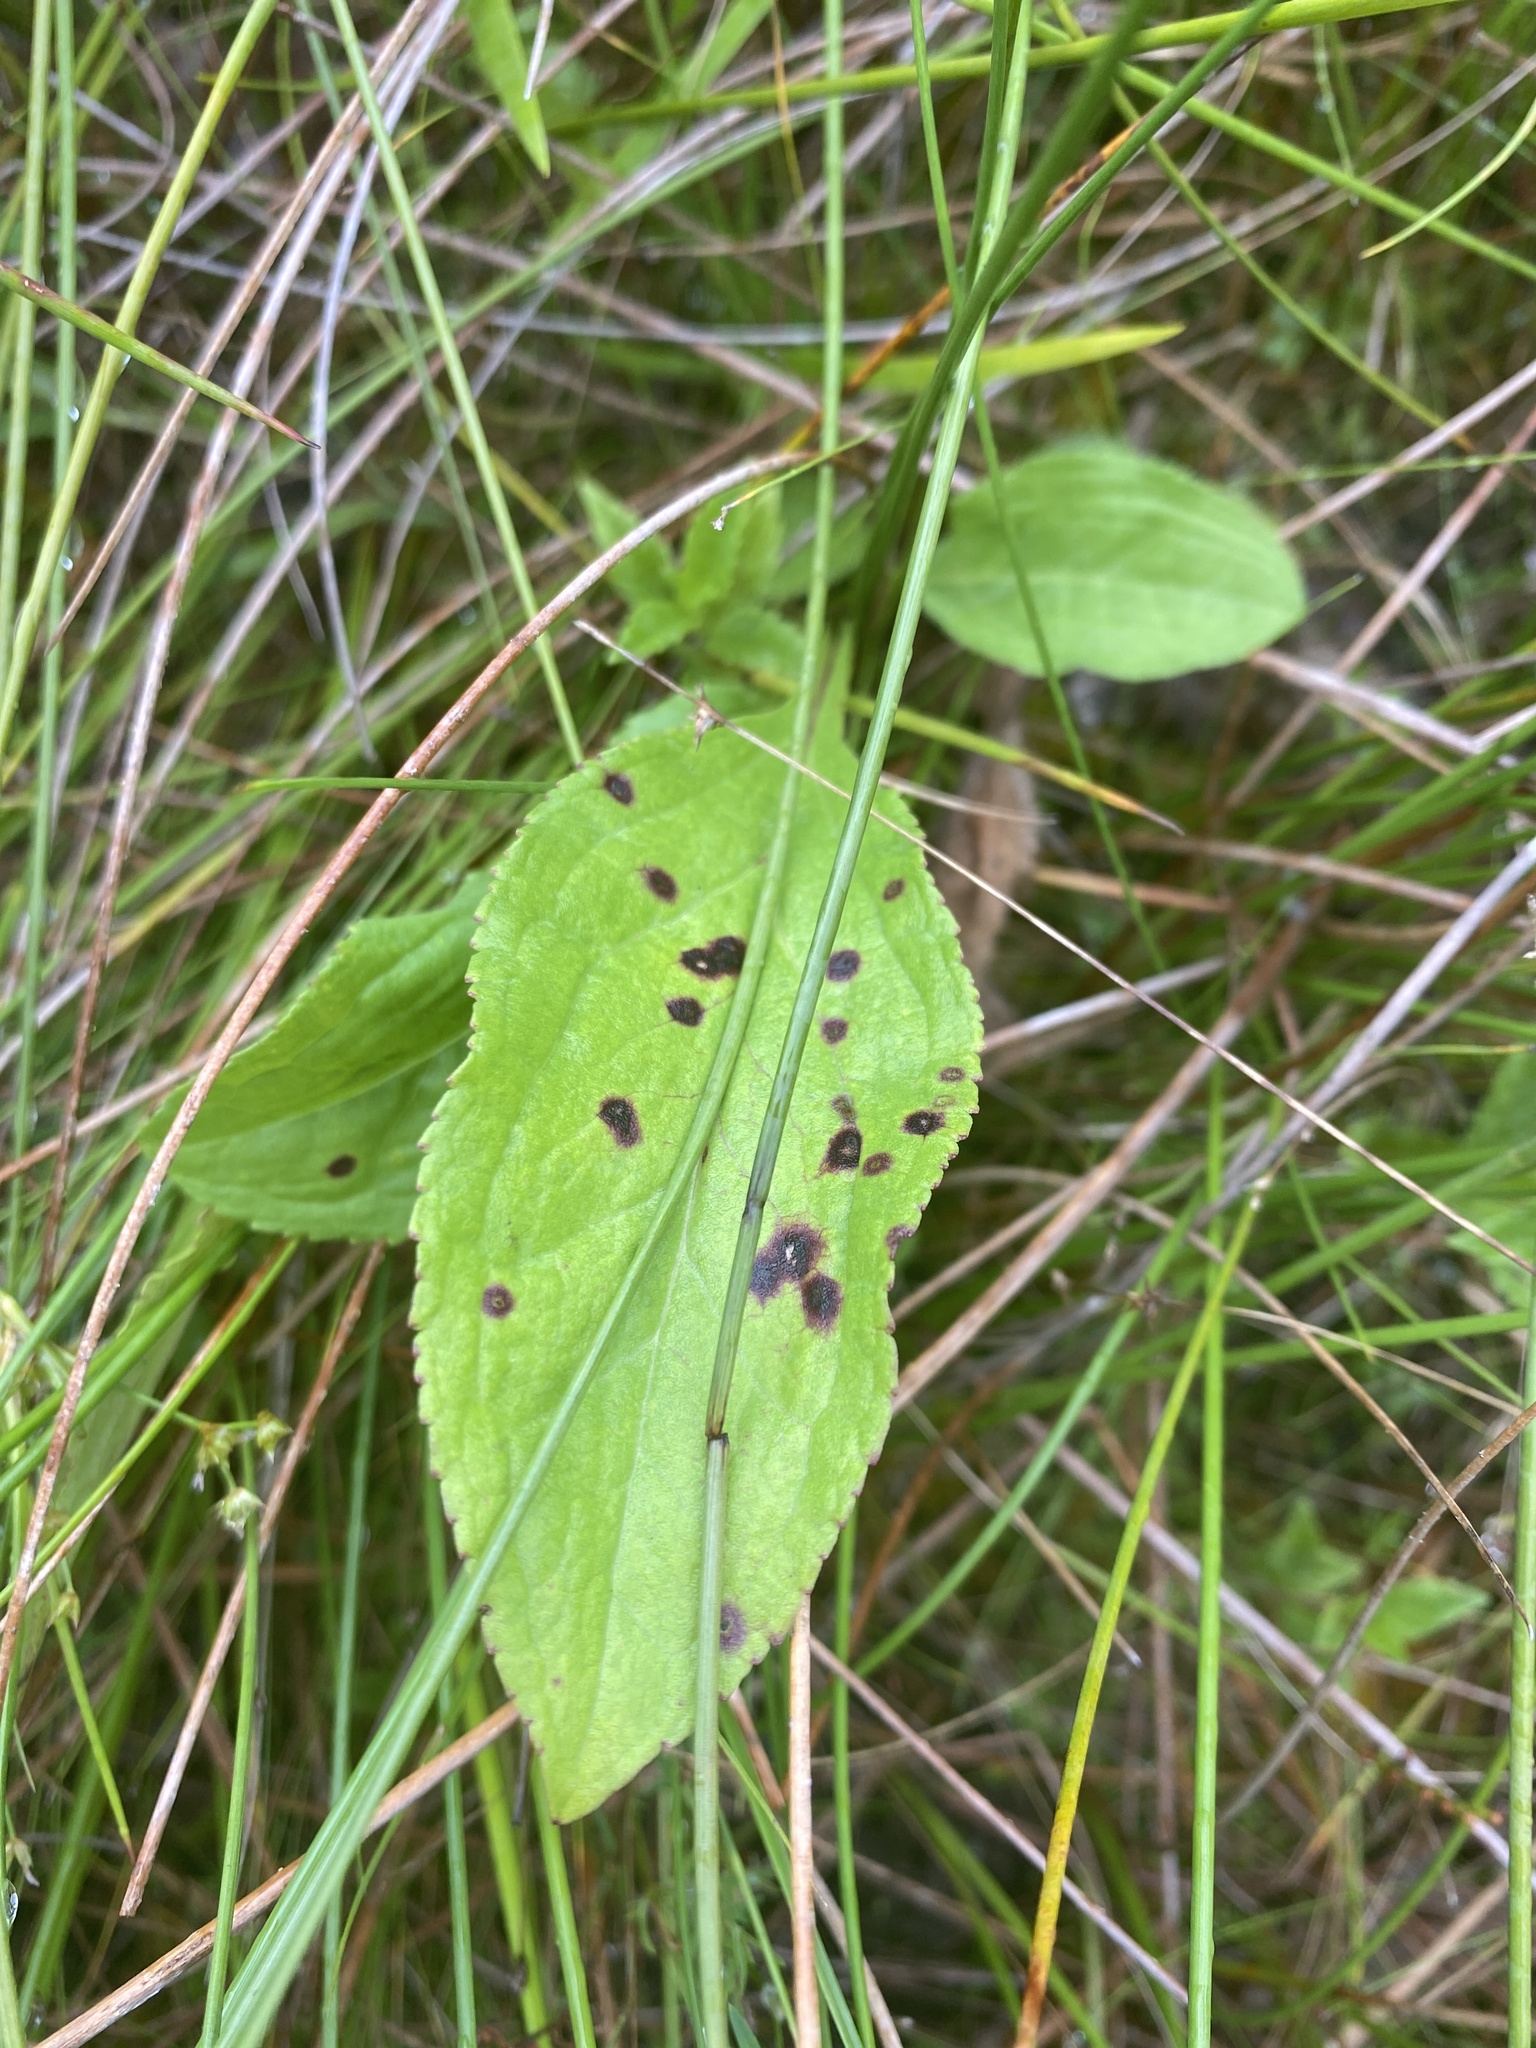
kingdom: Plantae
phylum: Tracheophyta
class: Magnoliopsida
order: Asterales
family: Asteraceae
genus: Solidago
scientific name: Solidago patula
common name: Rough-leaf goldenrod
